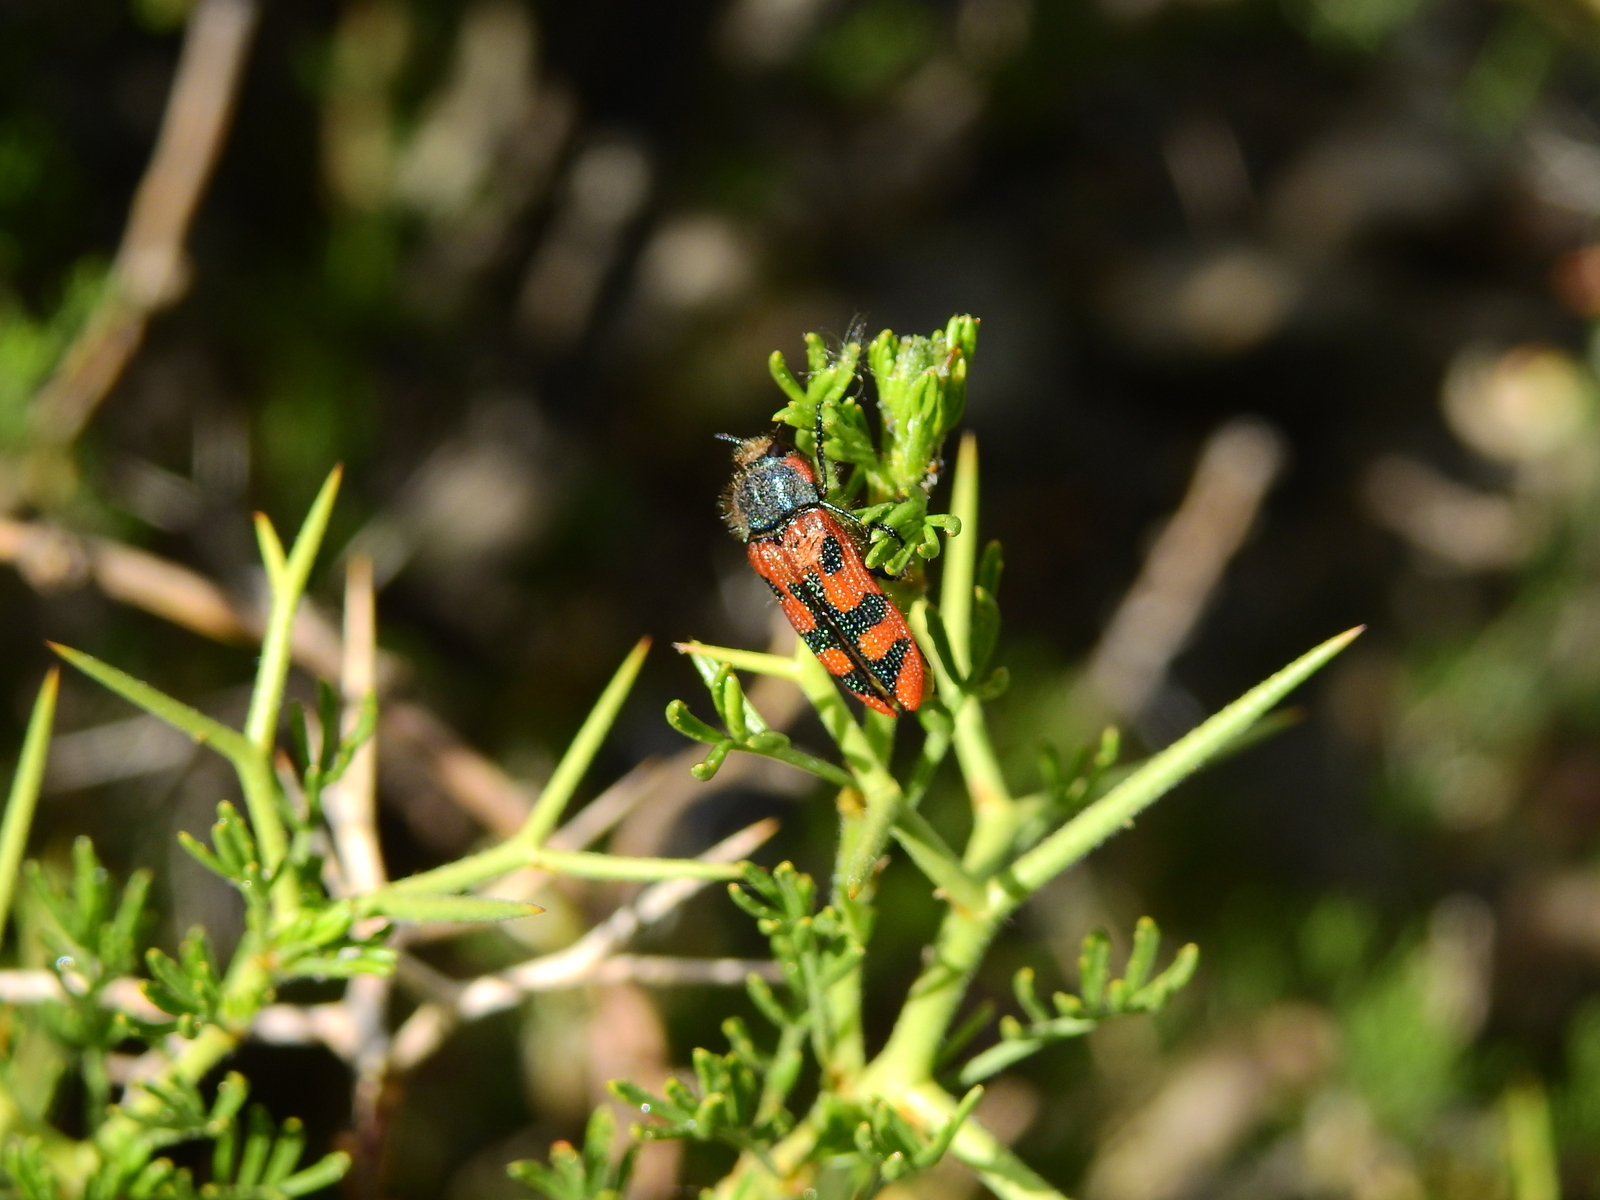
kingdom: Animalia
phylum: Arthropoda
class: Insecta
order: Coleoptera
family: Buprestidae
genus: Lasionota
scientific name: Lasionota pictus
